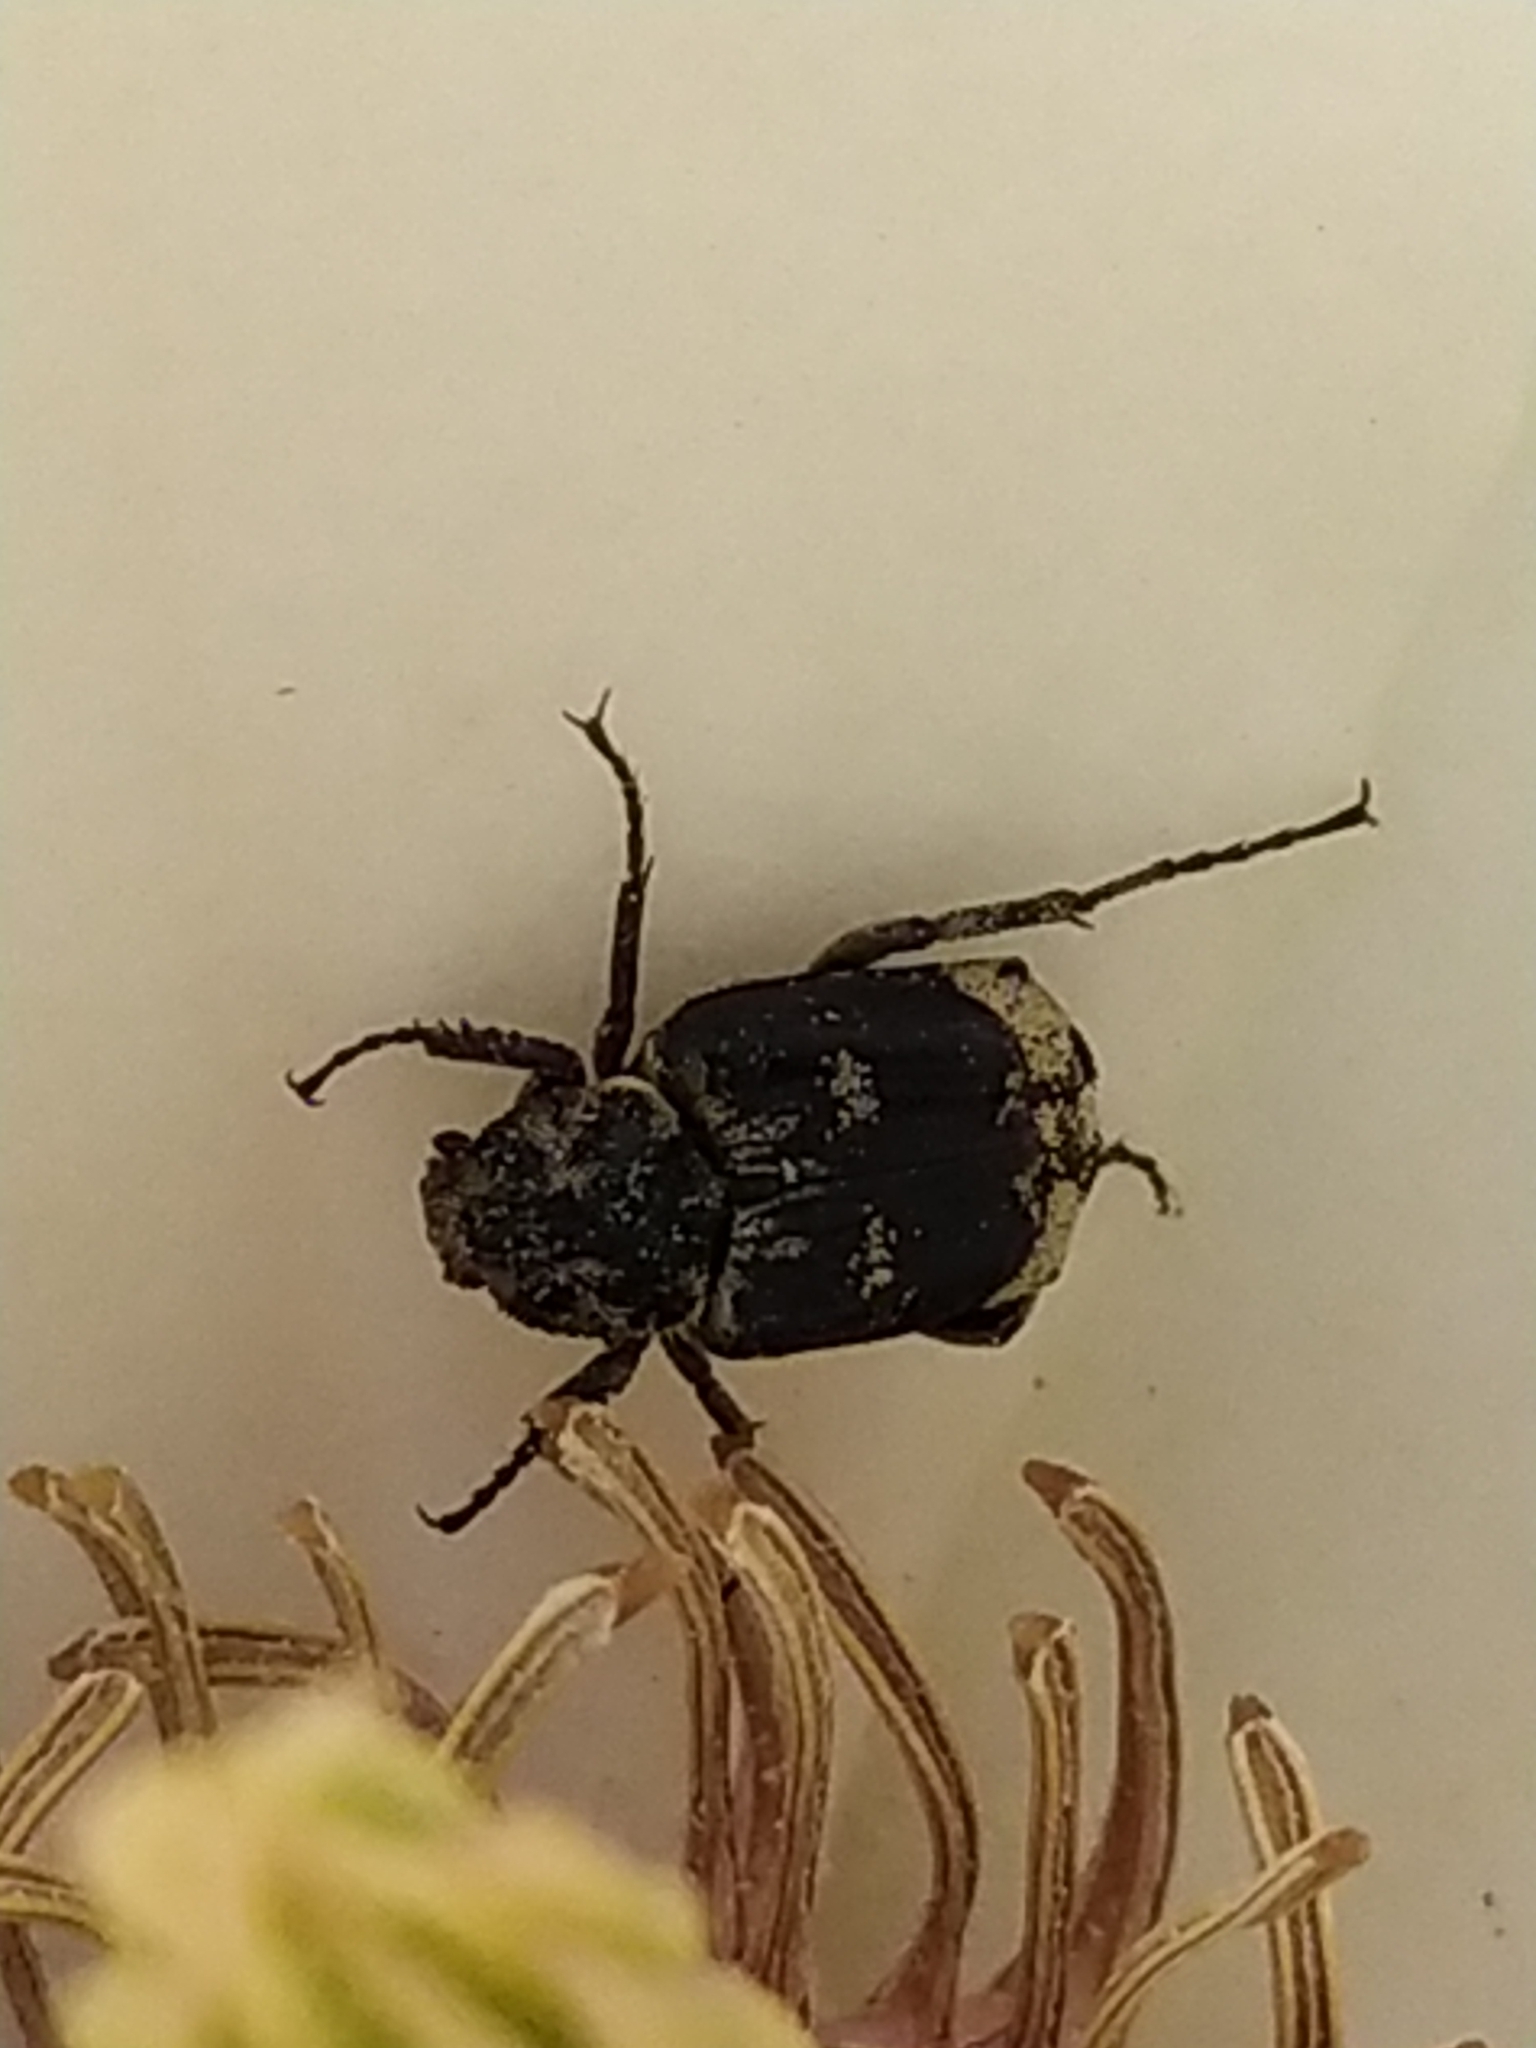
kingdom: Animalia
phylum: Arthropoda
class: Insecta
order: Coleoptera
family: Scarabaeidae
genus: Valgus
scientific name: Valgus hemipterus
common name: Bug flower chafer
